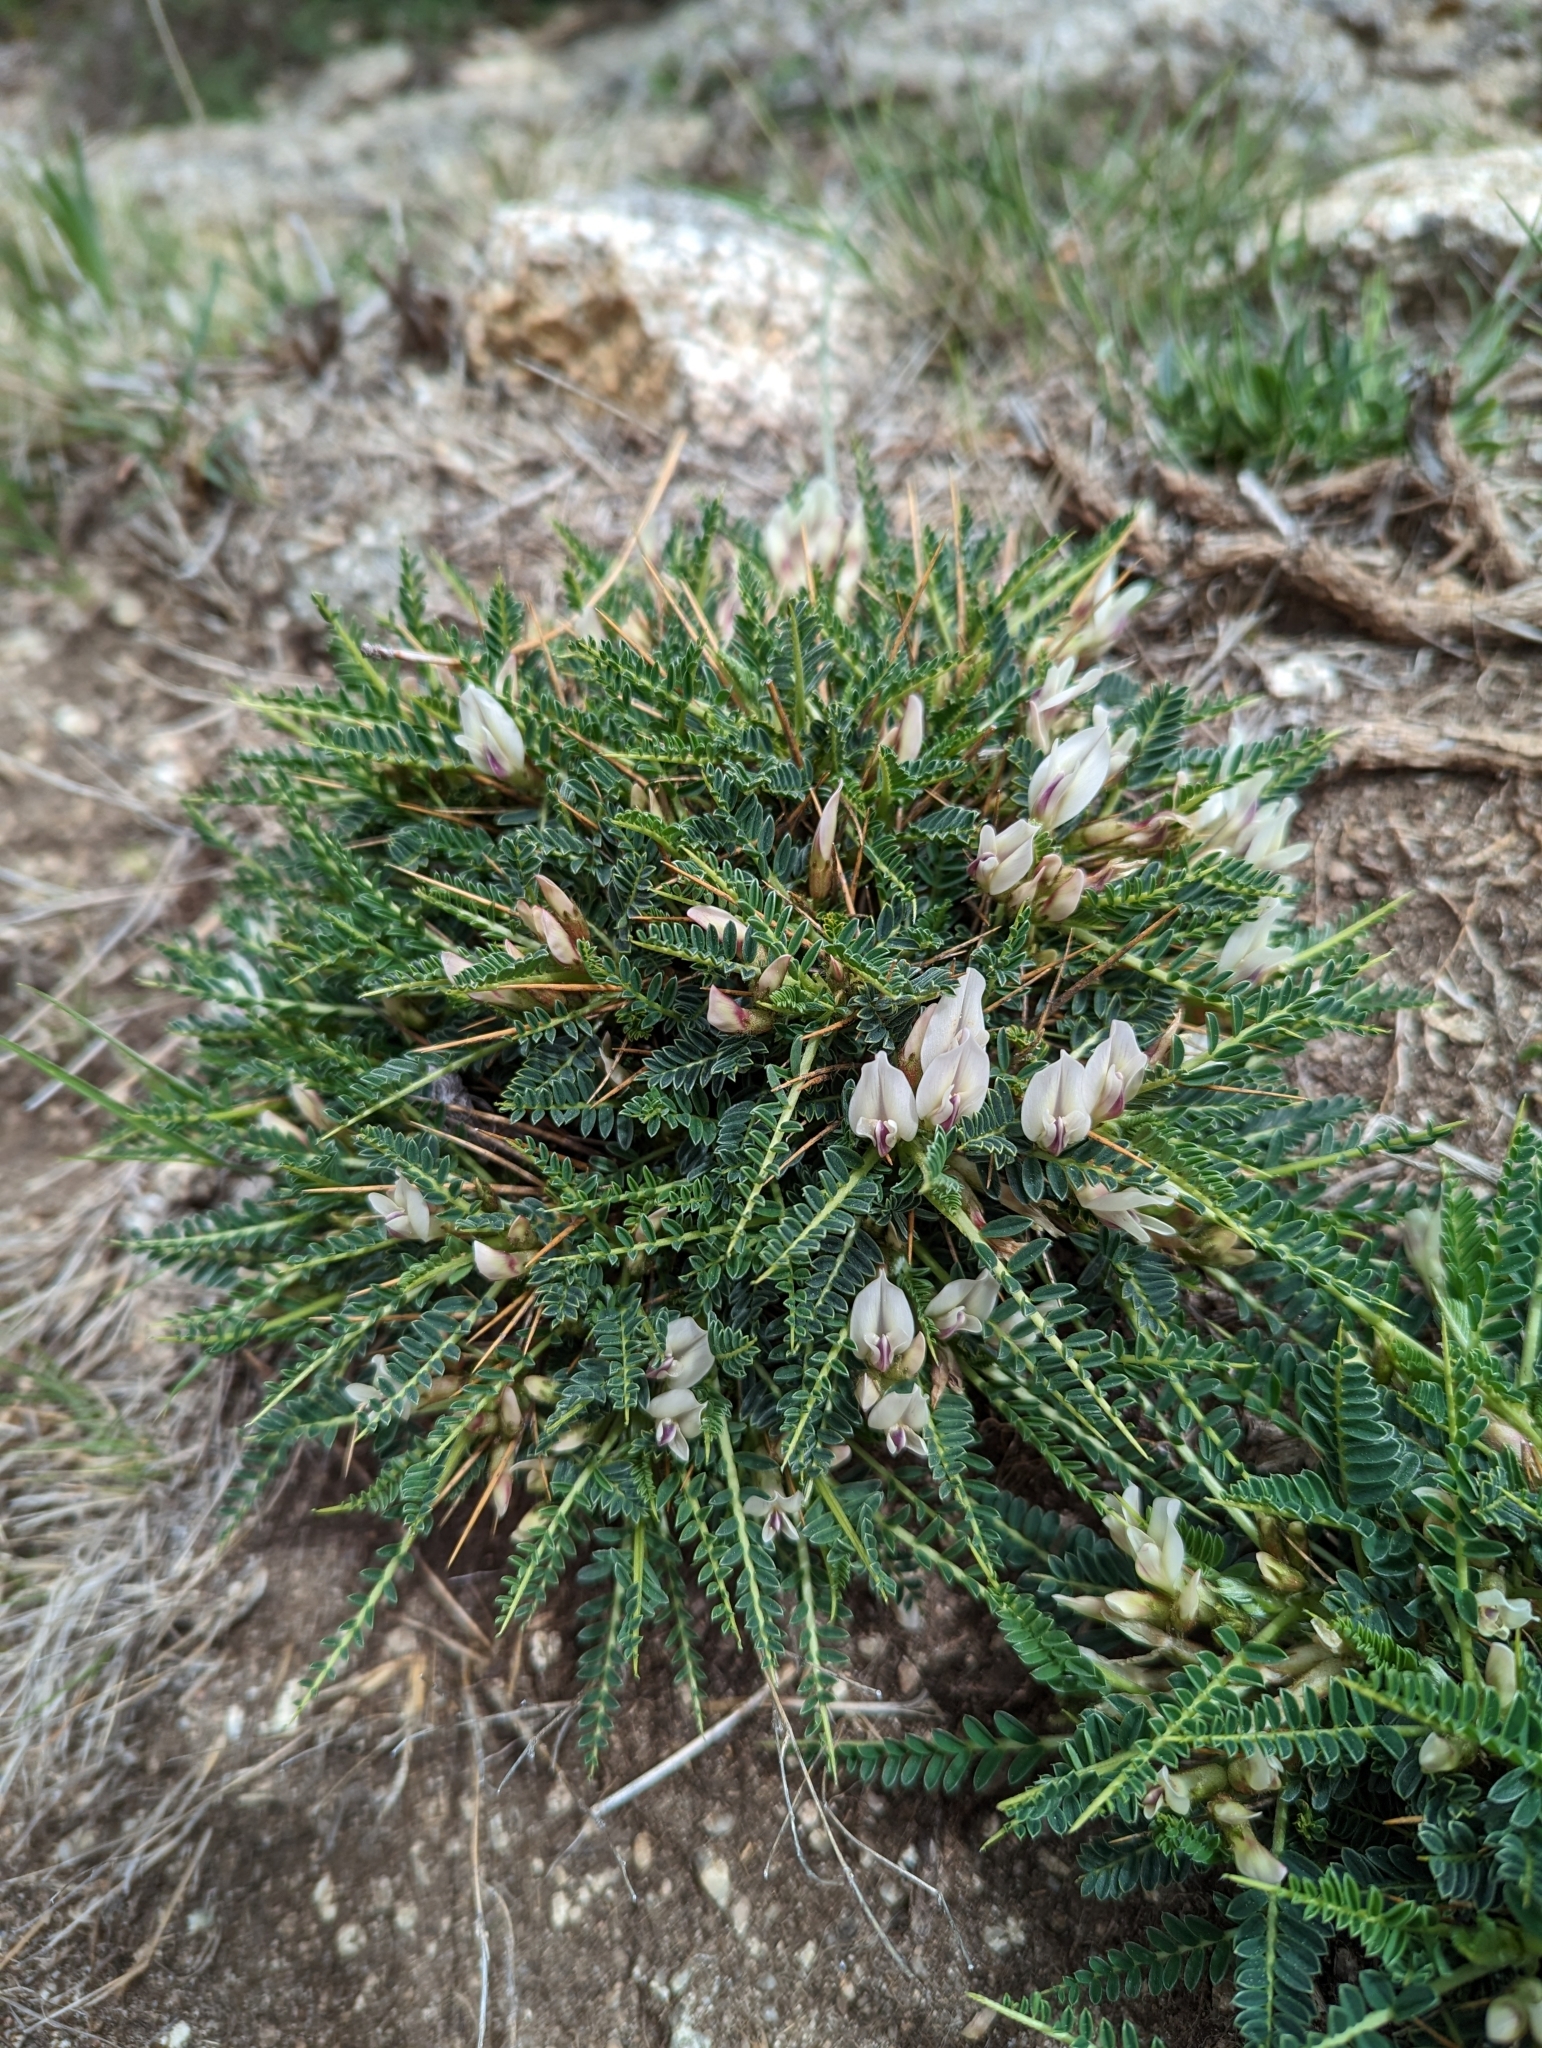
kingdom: Plantae
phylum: Tracheophyta
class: Magnoliopsida
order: Fabales
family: Fabaceae
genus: Astragalus
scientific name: Astragalus greuteri
